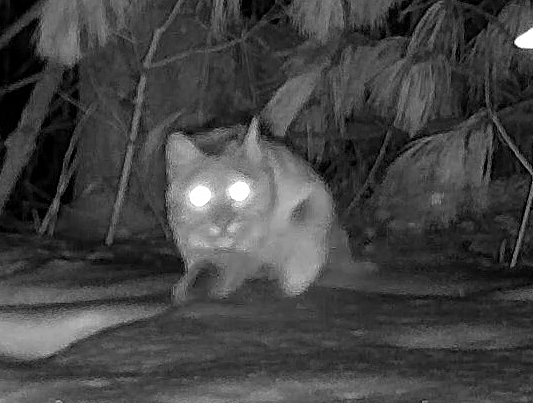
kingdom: Animalia
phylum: Chordata
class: Mammalia
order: Carnivora
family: Felidae
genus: Lynx
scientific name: Lynx rufus
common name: Bobcat
